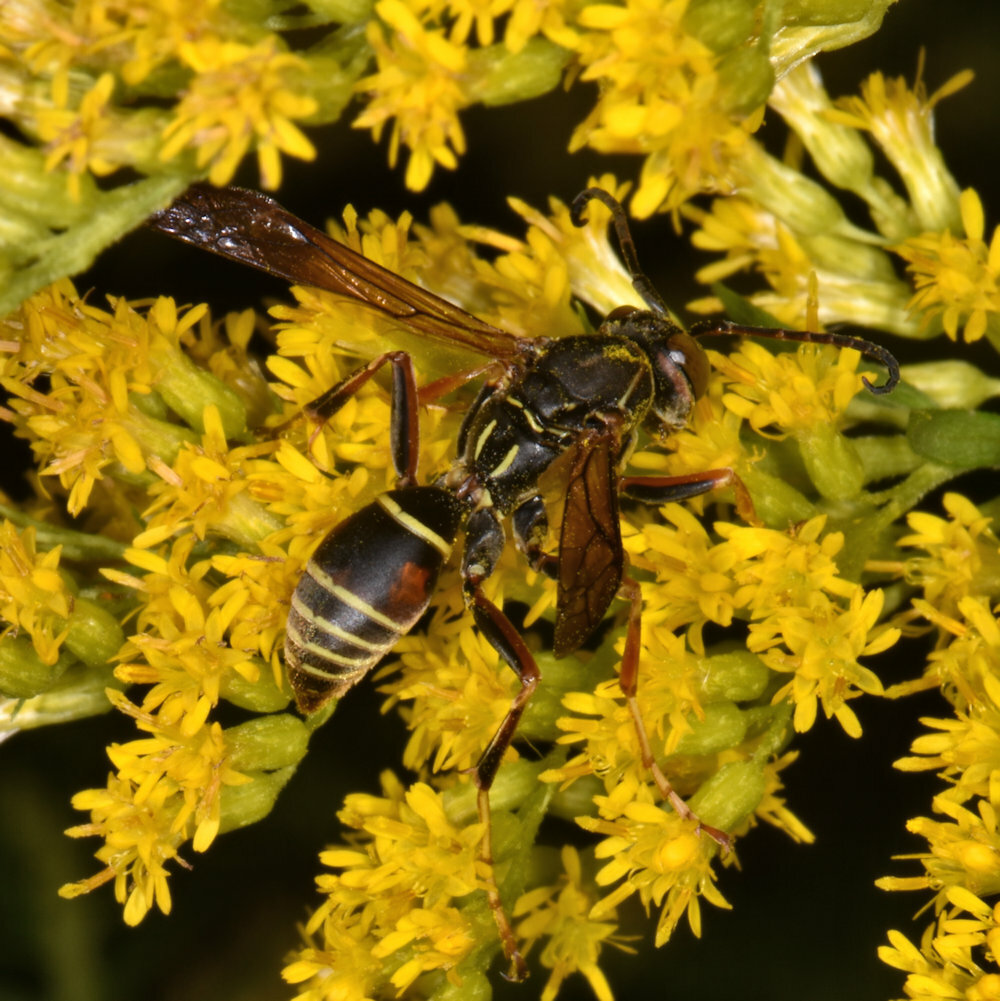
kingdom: Animalia
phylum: Arthropoda
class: Insecta
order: Hymenoptera
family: Eumenidae
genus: Polistes
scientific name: Polistes fuscatus
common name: Dark paper wasp
